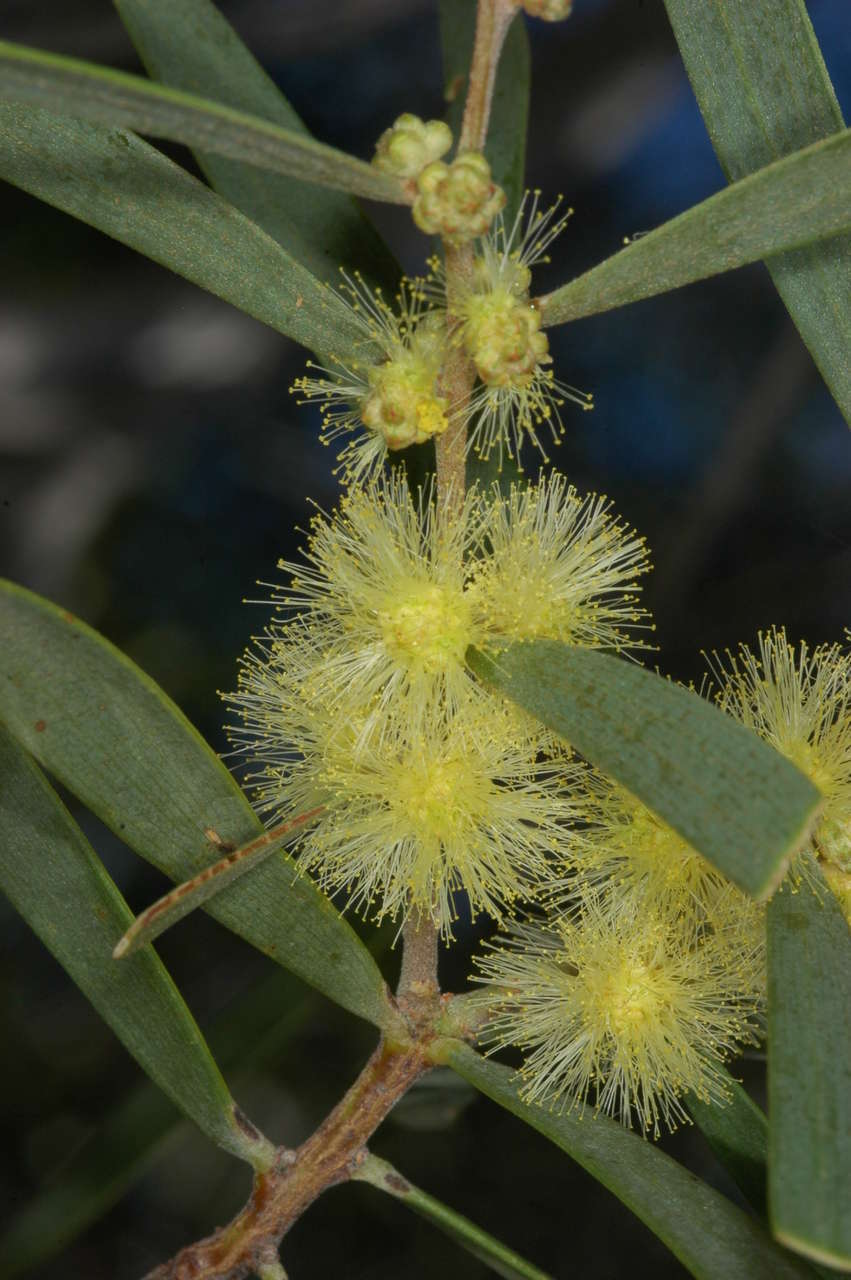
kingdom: Plantae
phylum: Tracheophyta
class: Magnoliopsida
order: Fabales
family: Fabaceae
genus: Acacia
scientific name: Acacia oswaldii
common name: Umbrella wattle
